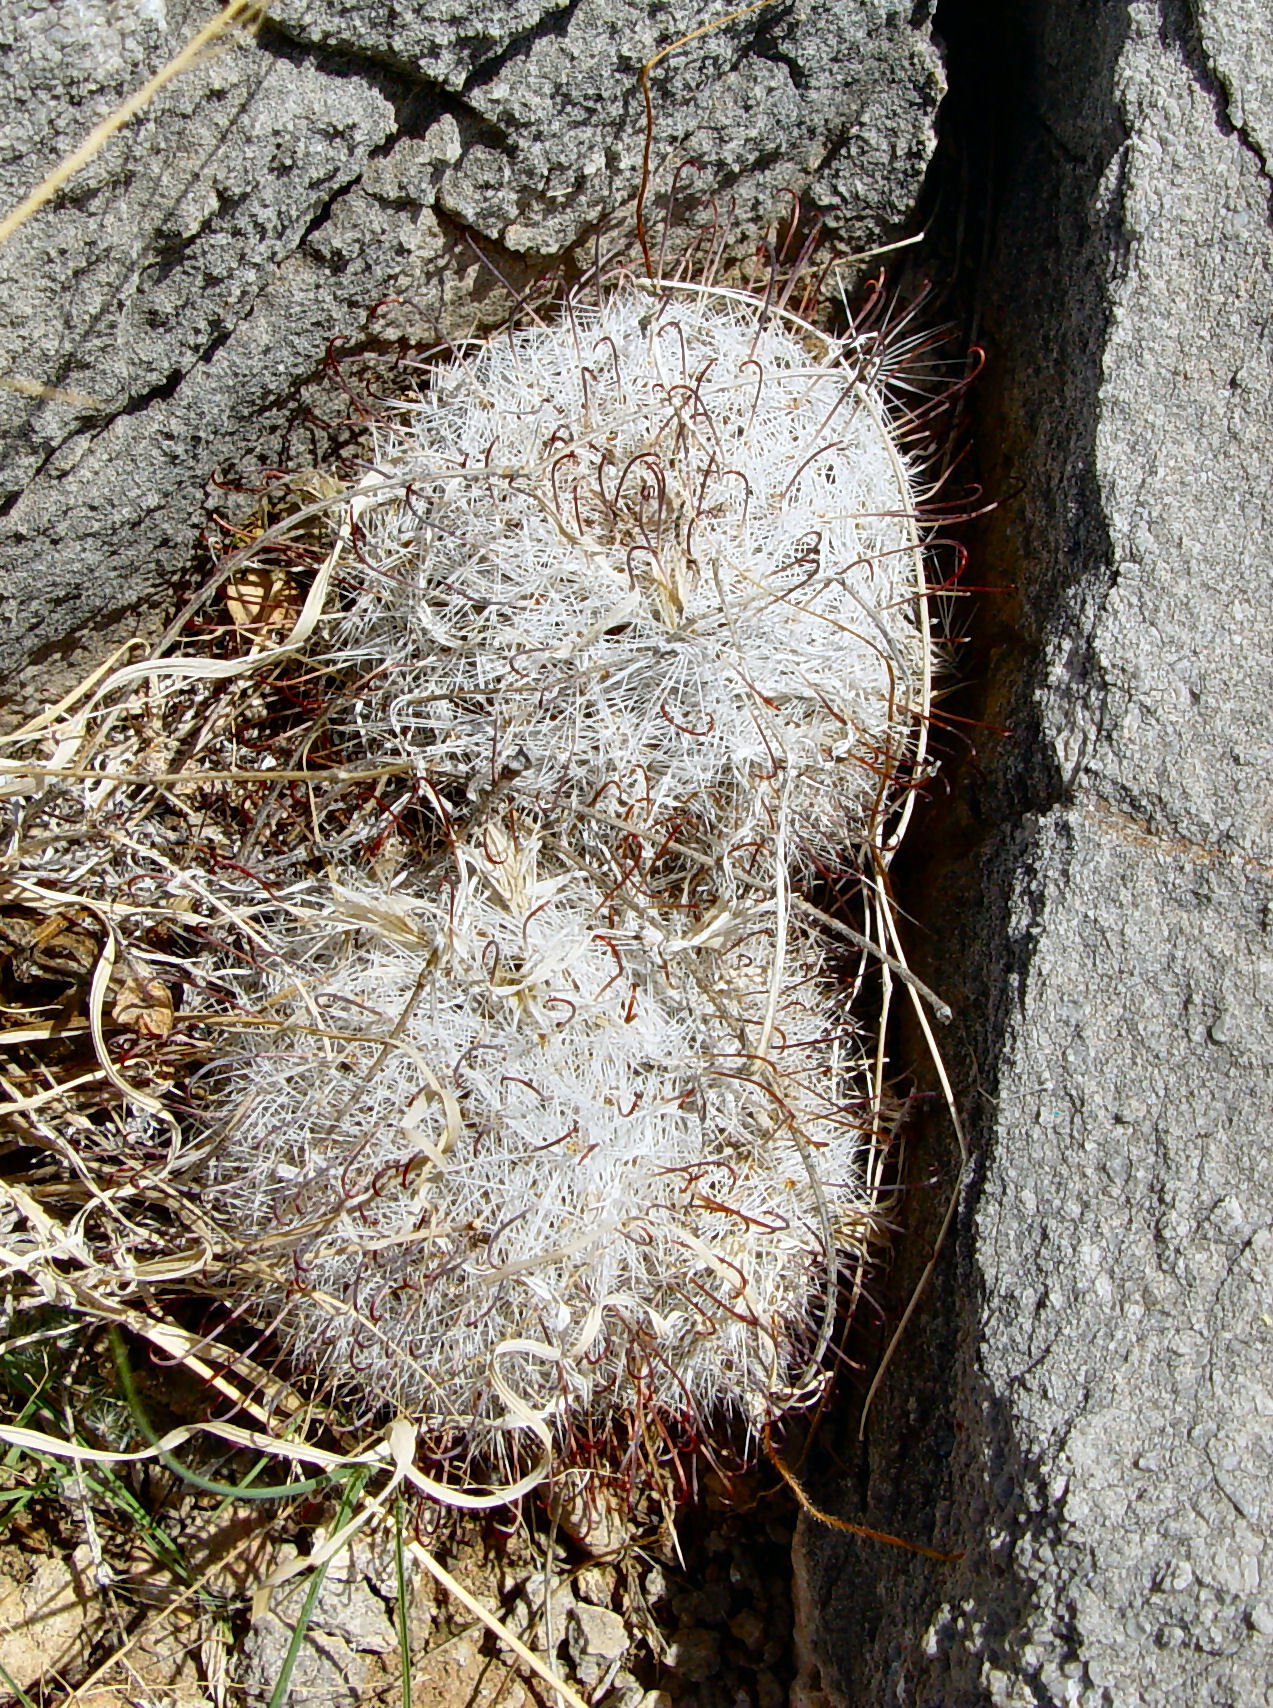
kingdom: Plantae
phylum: Tracheophyta
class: Magnoliopsida
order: Caryophyllales
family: Cactaceae
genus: Cochemiea
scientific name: Cochemiea grahamii
